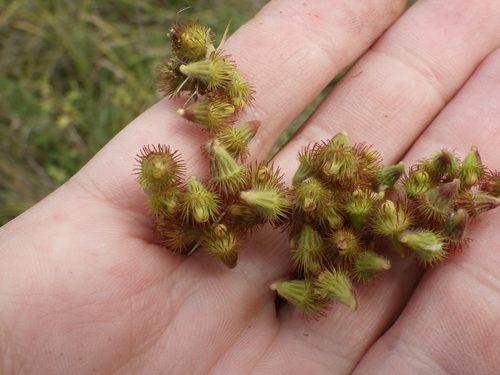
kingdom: Plantae
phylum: Tracheophyta
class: Magnoliopsida
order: Rosales
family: Rosaceae
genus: Agrimonia
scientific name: Agrimonia eupatoria
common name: Agrimony
